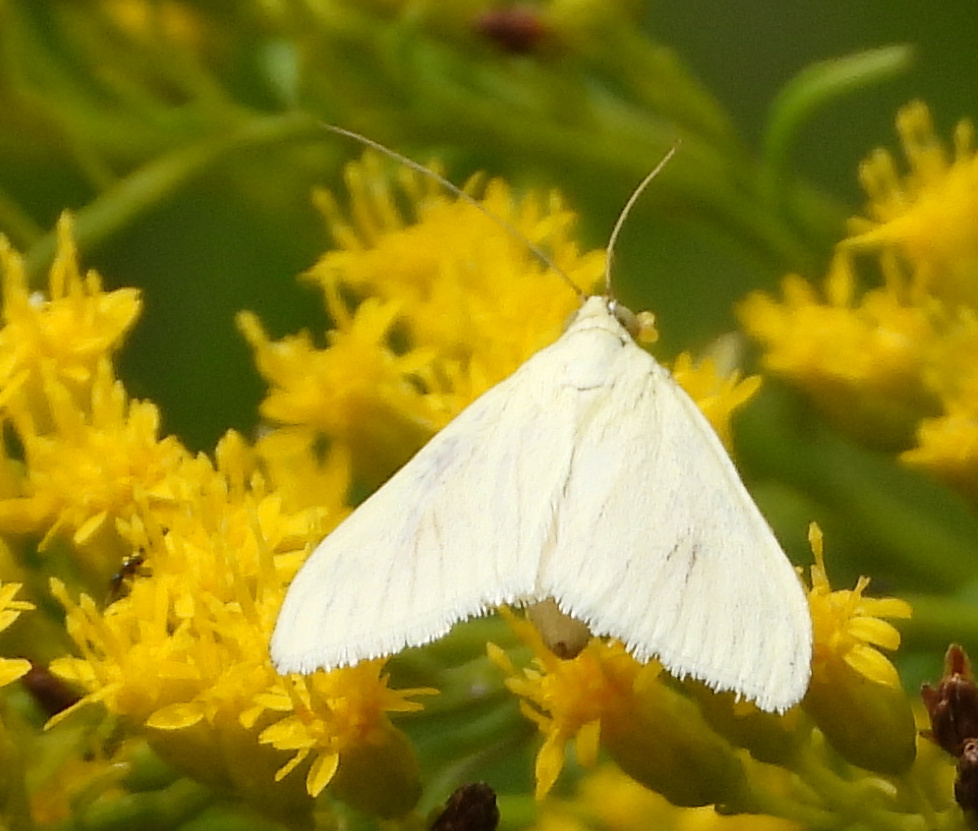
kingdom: Animalia
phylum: Arthropoda
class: Insecta
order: Lepidoptera
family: Crambidae
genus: Sitochroa
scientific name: Sitochroa palealis
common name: Greenish-yellow sitochroa moth
